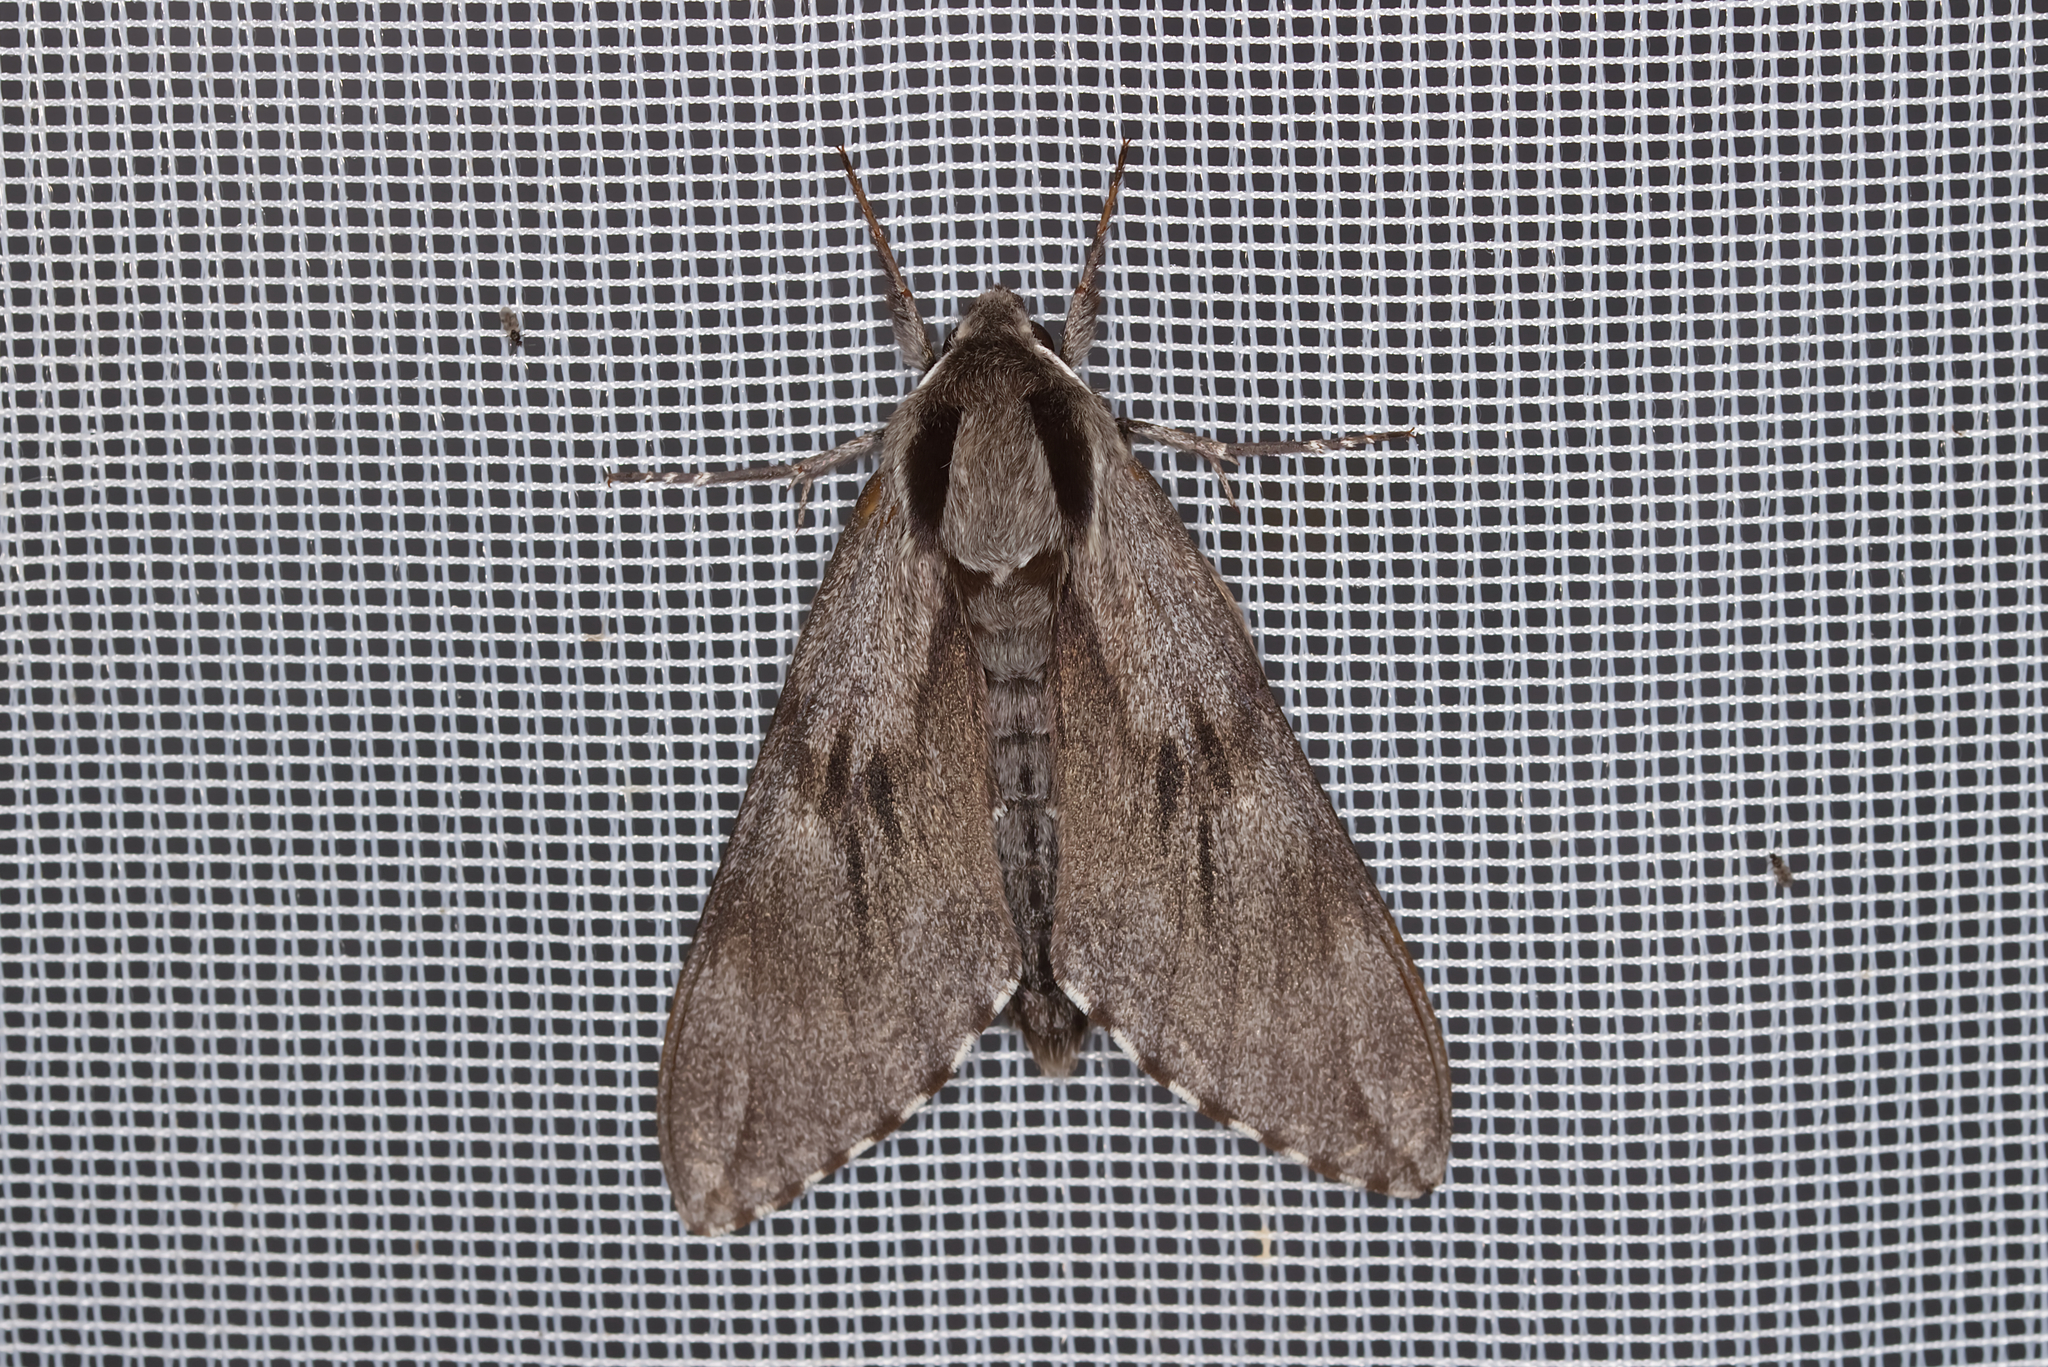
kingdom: Animalia
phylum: Arthropoda
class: Insecta
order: Lepidoptera
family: Sphingidae
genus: Sphinx
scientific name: Sphinx pinastri
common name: Pine hawk-moth
